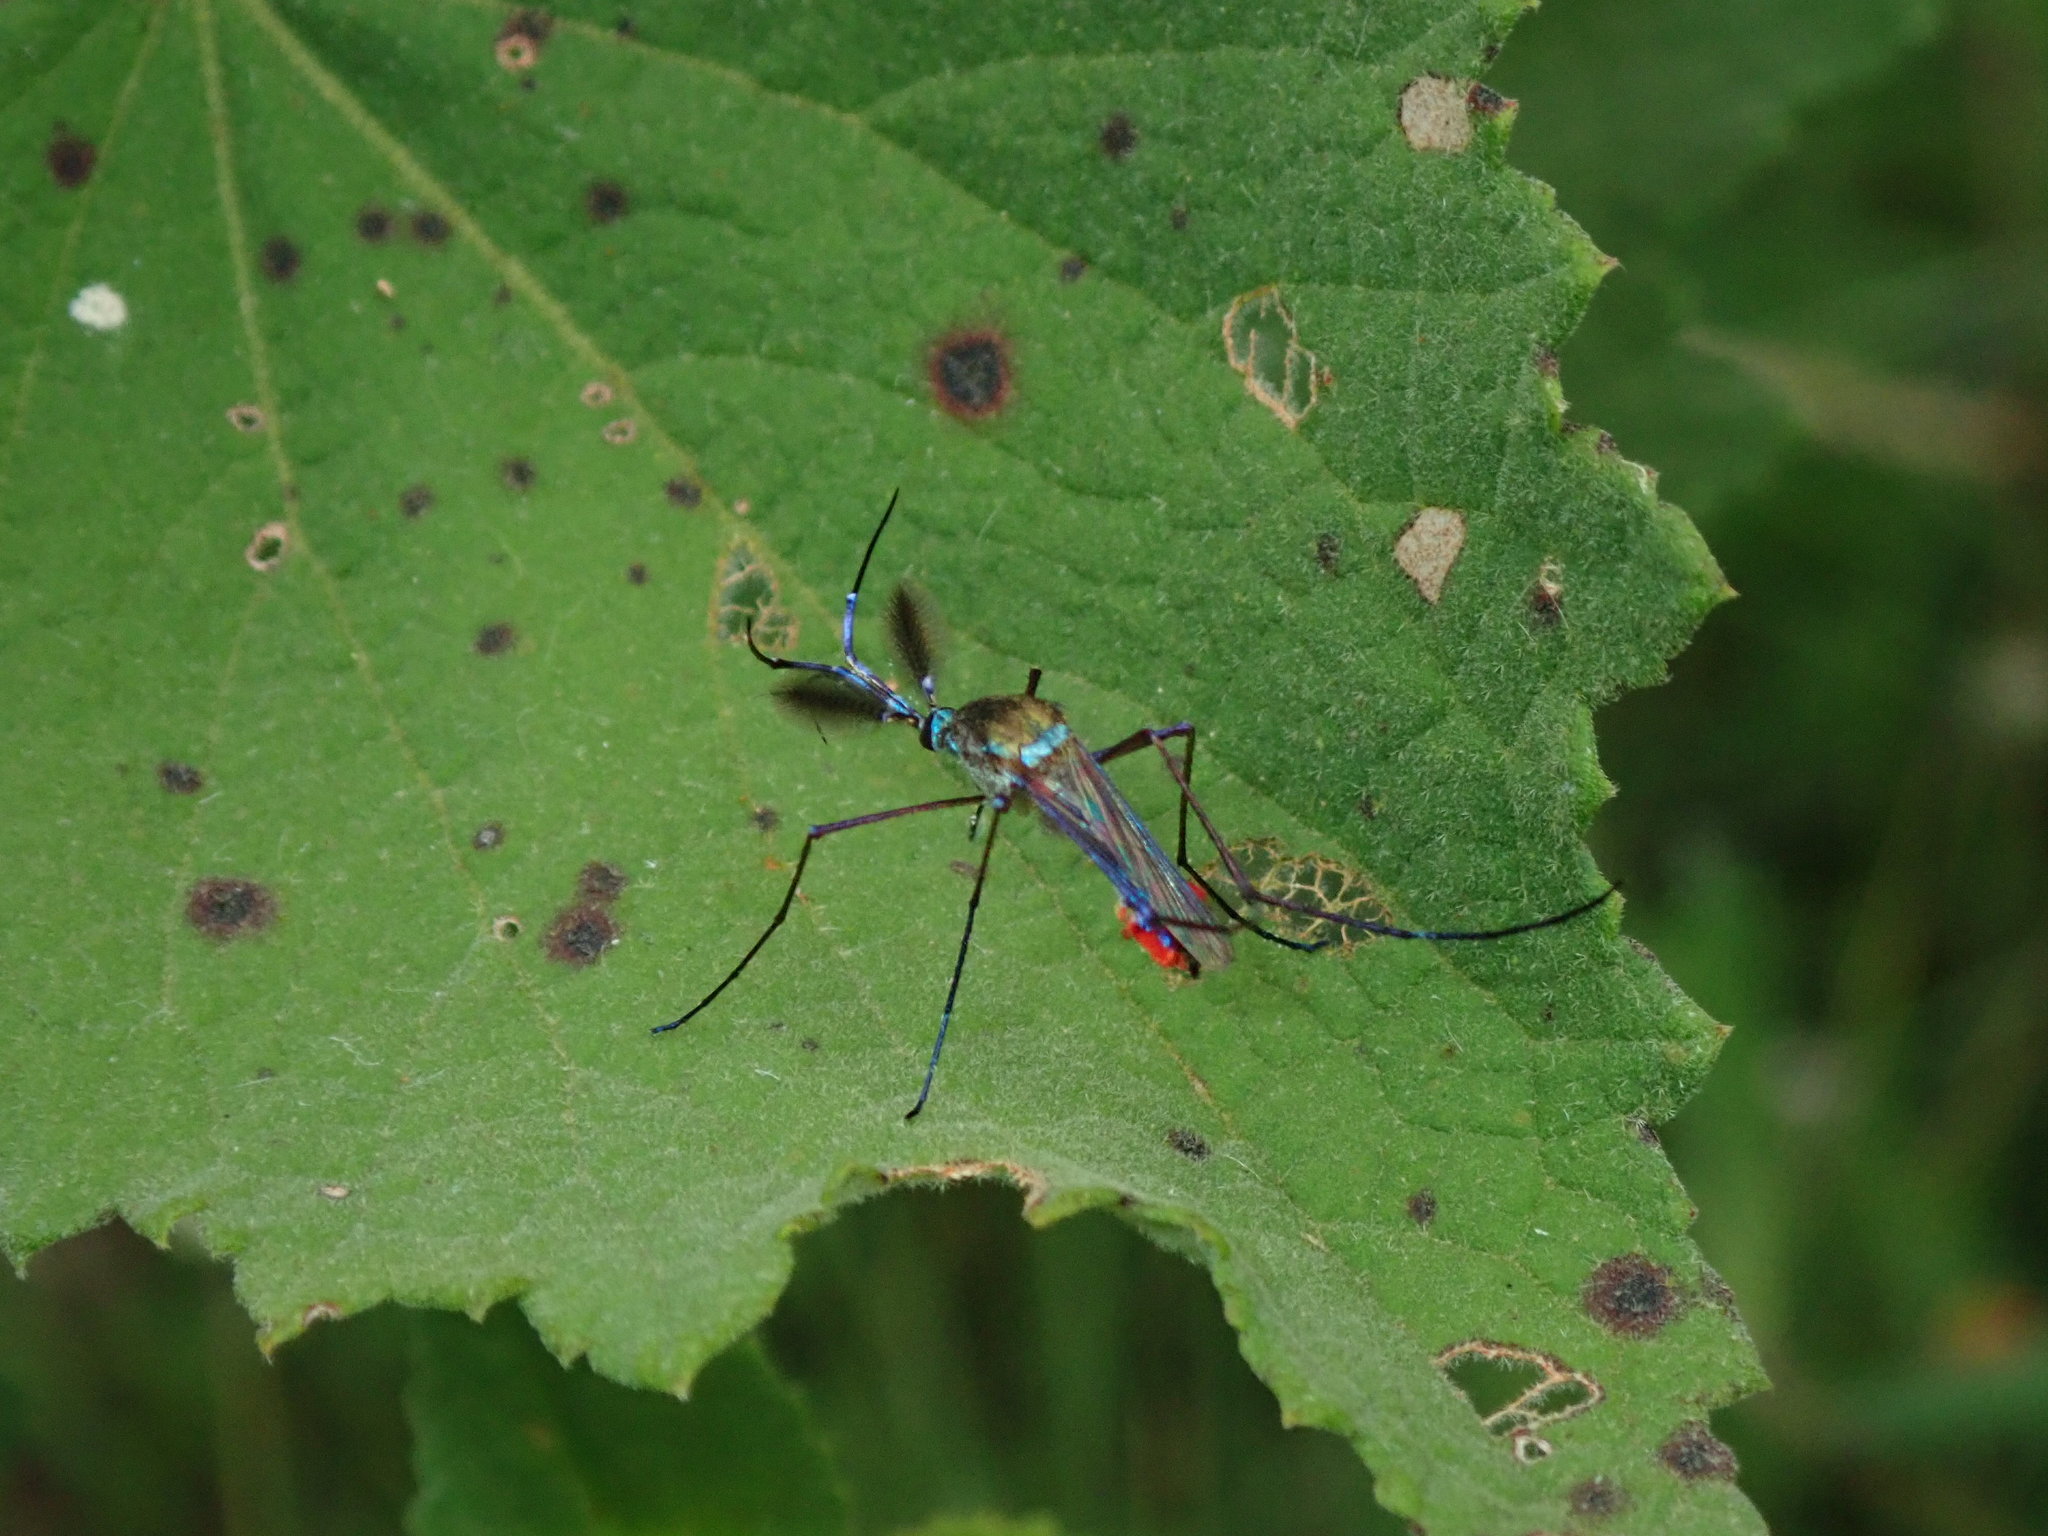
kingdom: Animalia
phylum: Arthropoda
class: Insecta
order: Diptera
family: Culicidae
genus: Toxorhynchites
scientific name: Toxorhynchites haemorrhoidalis
